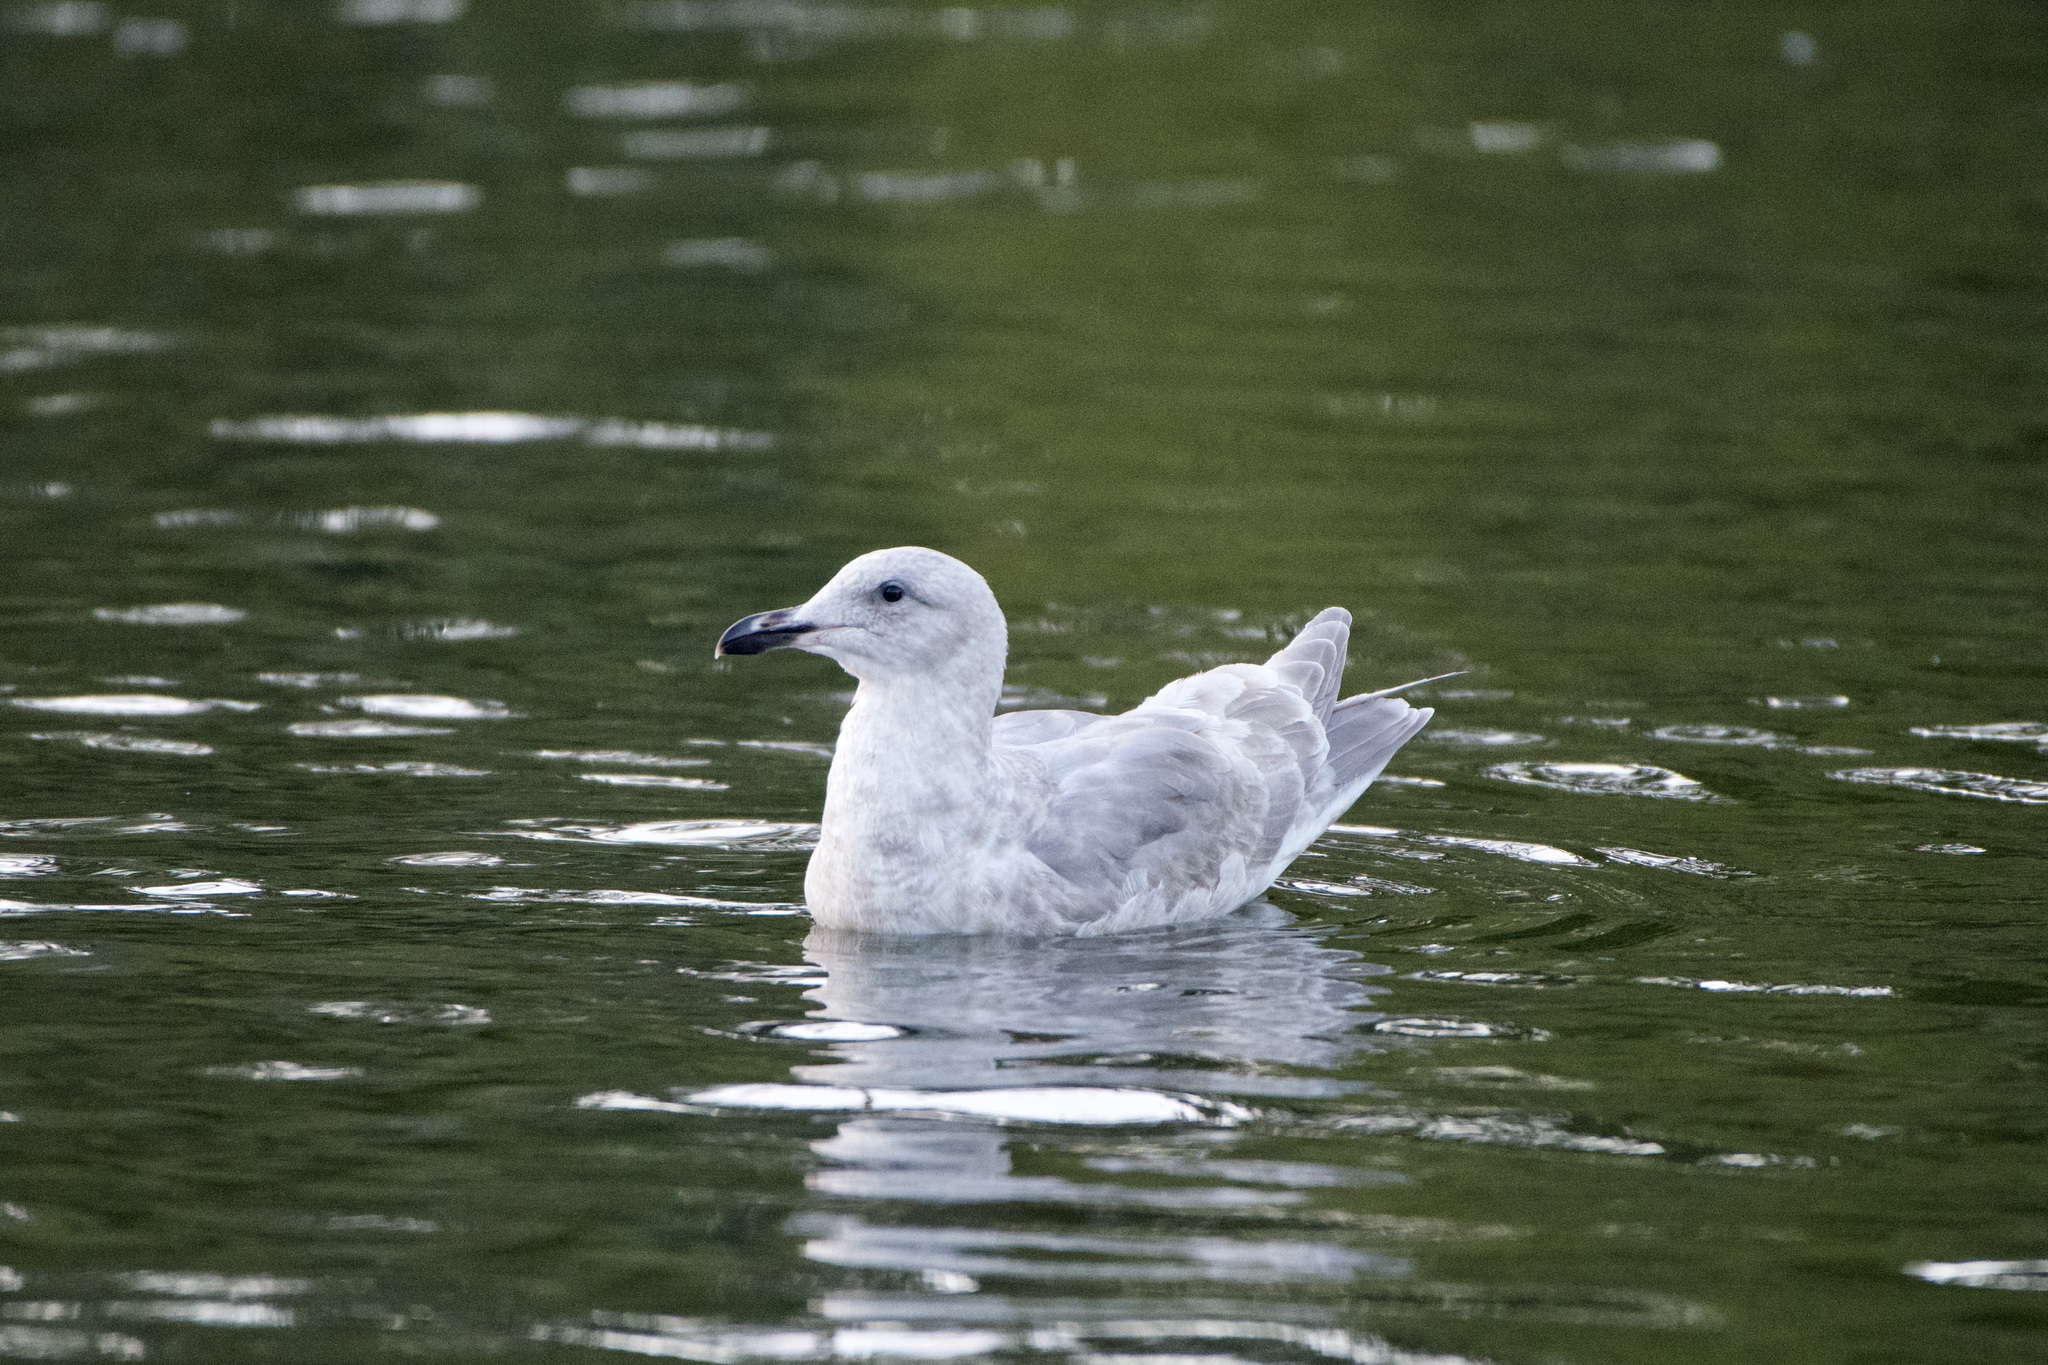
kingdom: Animalia
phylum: Chordata
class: Aves
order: Charadriiformes
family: Laridae
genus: Larus
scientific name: Larus glaucescens
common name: Glaucous-winged gull
